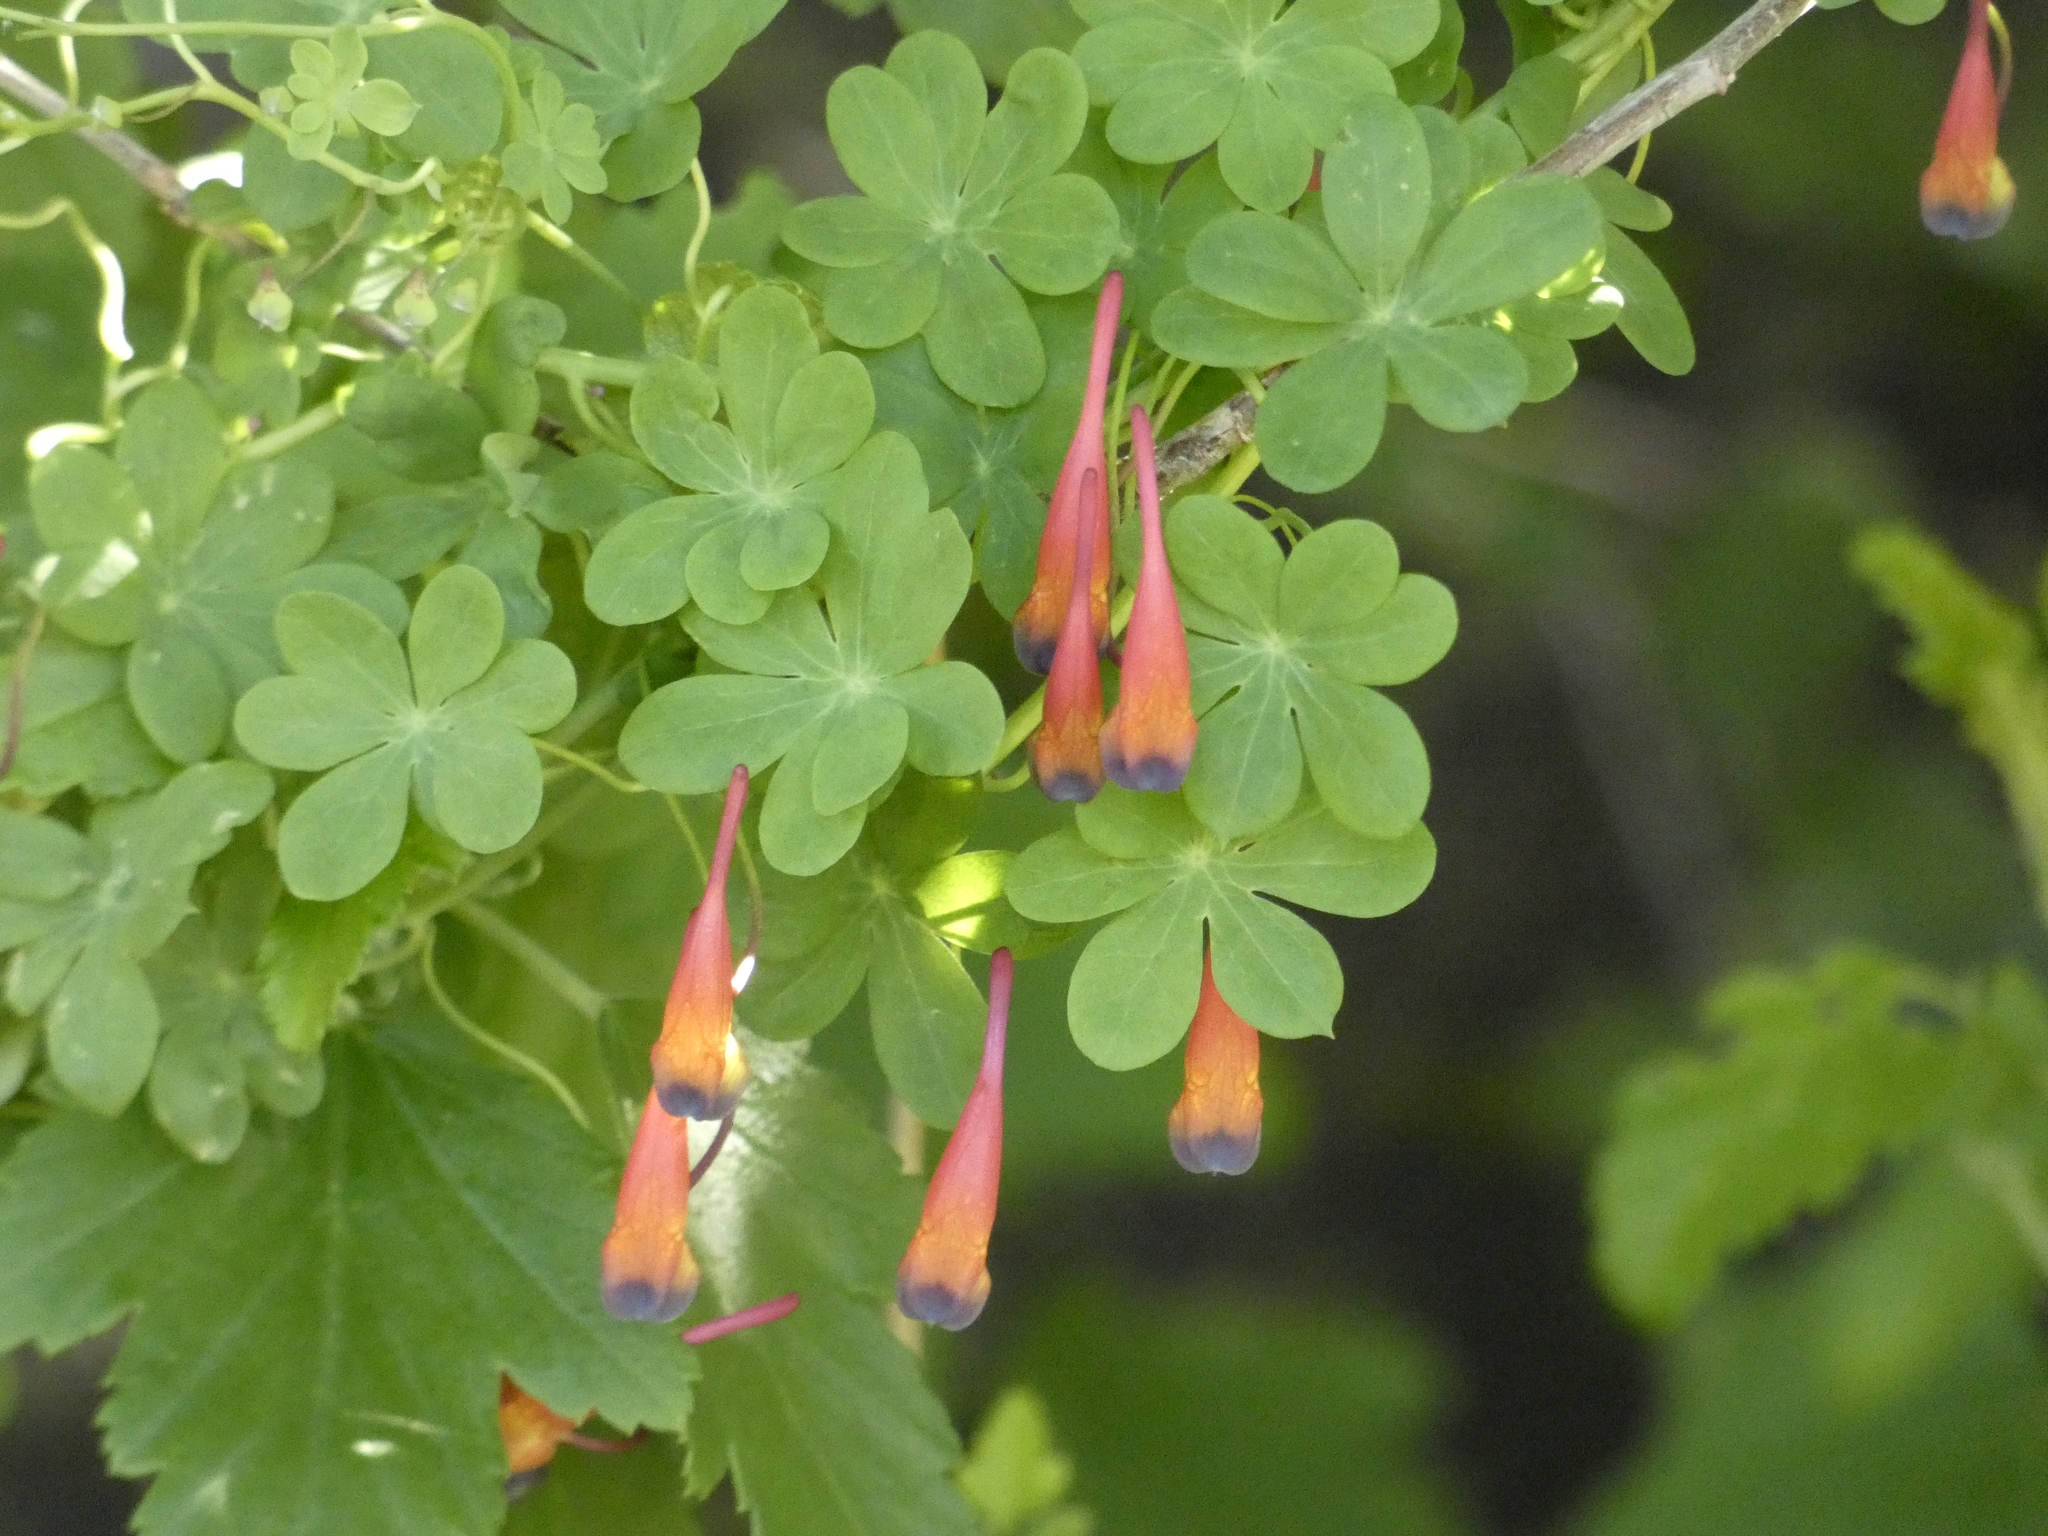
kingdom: Plantae
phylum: Tracheophyta
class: Magnoliopsida
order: Brassicales
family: Tropaeolaceae
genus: Tropaeolum
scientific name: Tropaeolum tricolor
